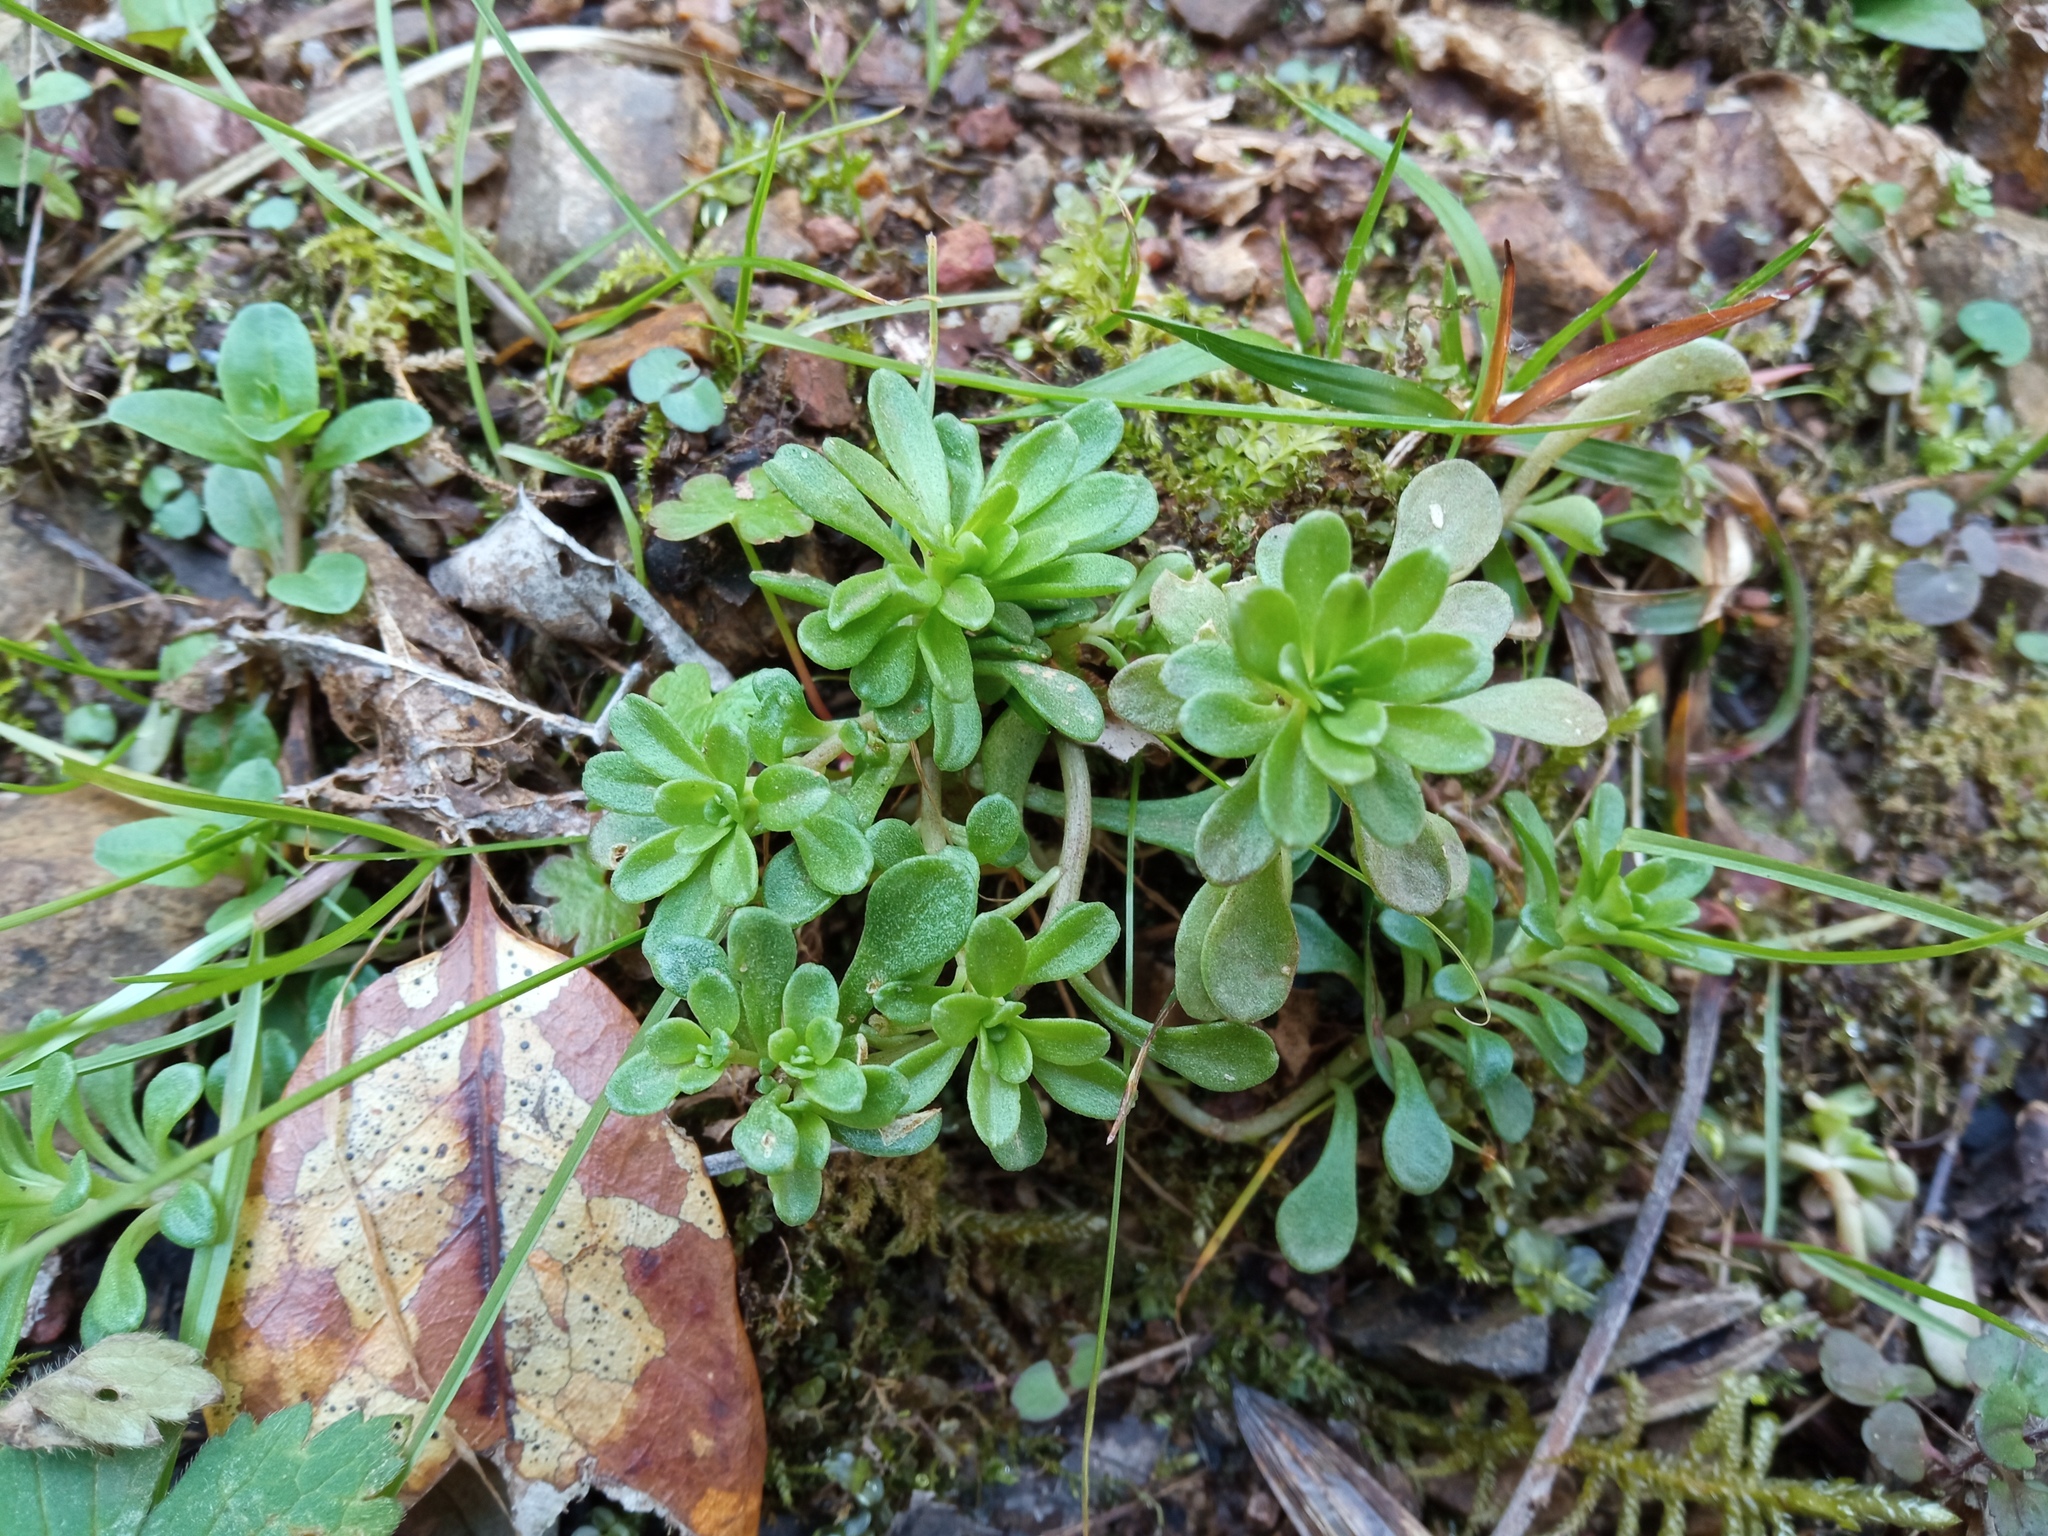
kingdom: Plantae
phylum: Tracheophyta
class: Magnoliopsida
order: Saxifragales
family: Crassulaceae
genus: Sedum
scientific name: Sedum cepaea
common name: Pink stonecrop
